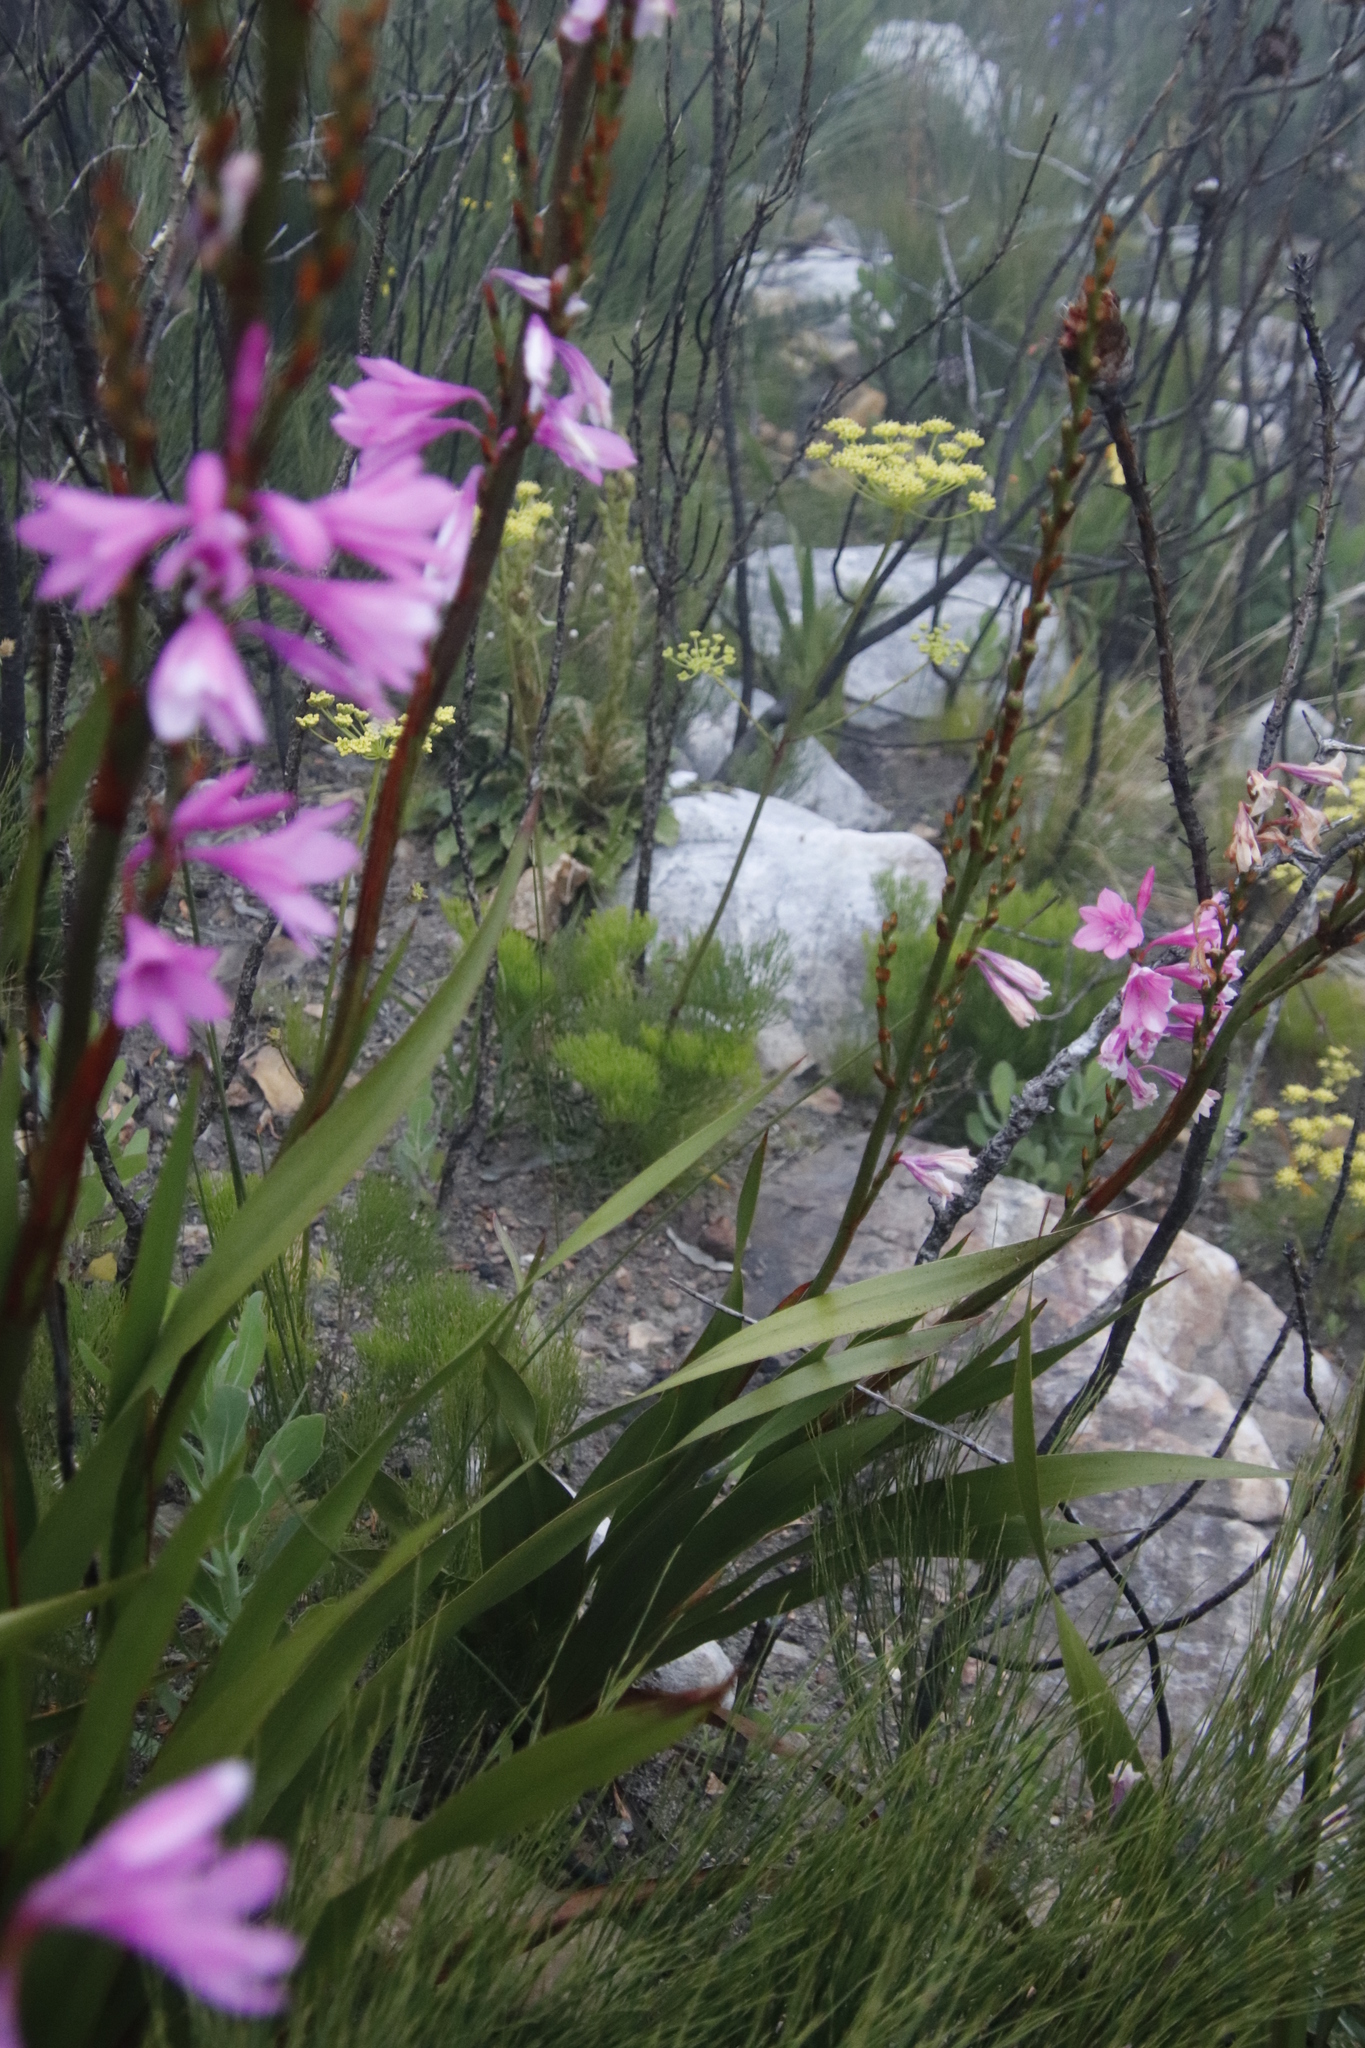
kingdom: Plantae
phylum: Tracheophyta
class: Magnoliopsida
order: Apiales
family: Apiaceae
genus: Nanobubon
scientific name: Nanobubon strictum
